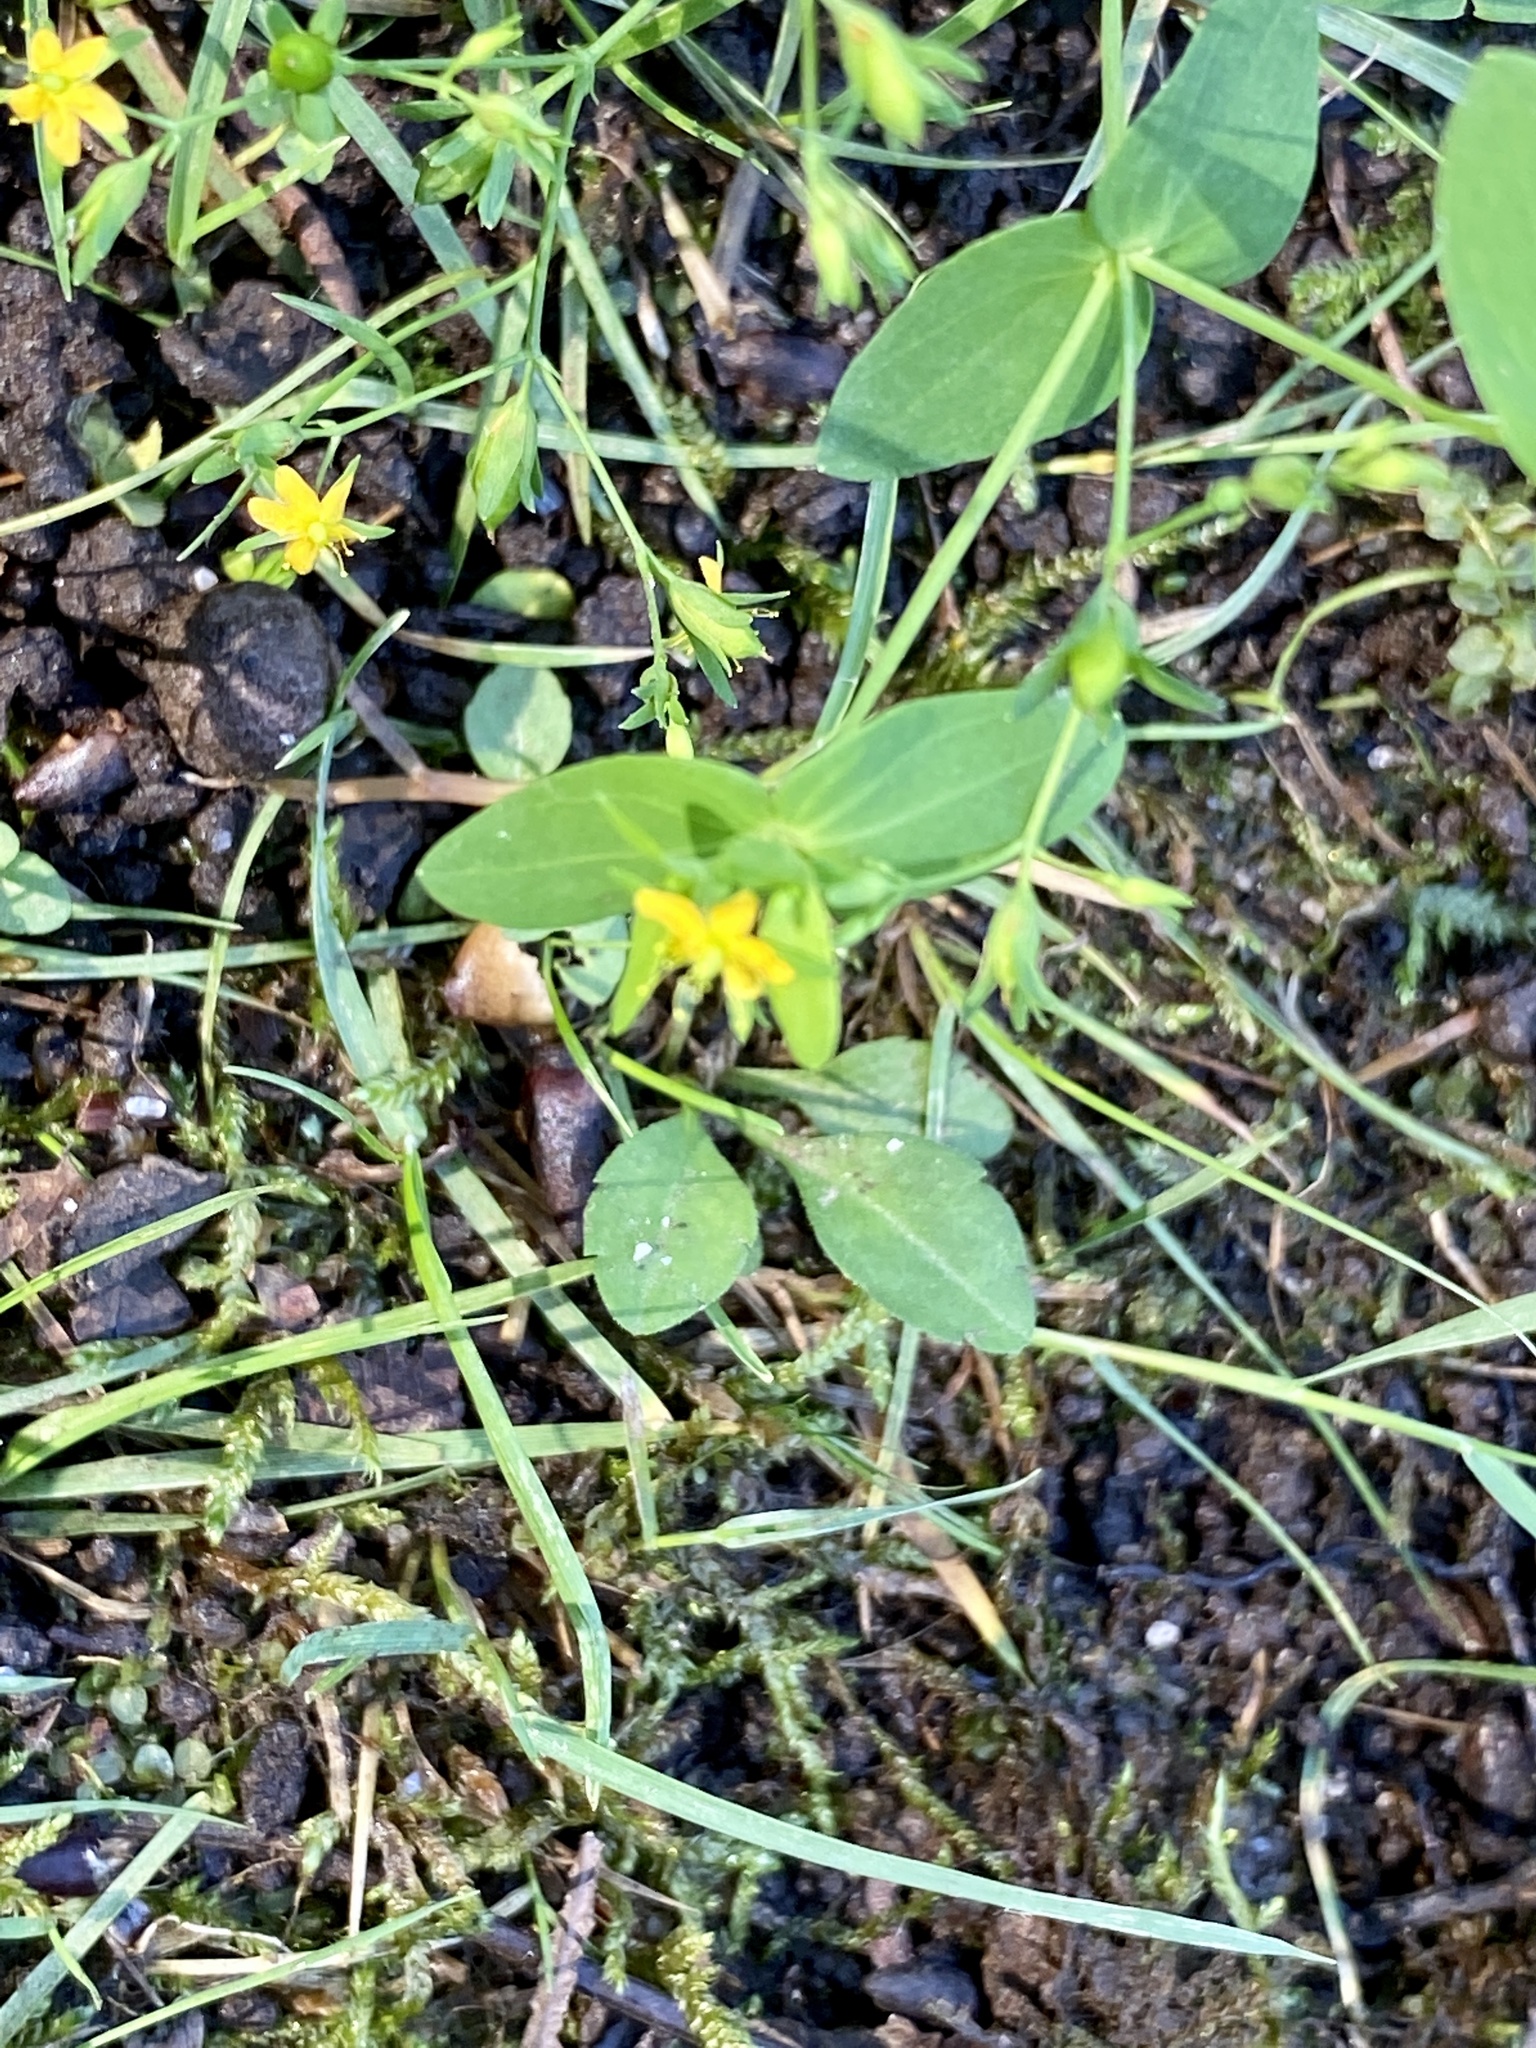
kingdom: Plantae
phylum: Tracheophyta
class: Magnoliopsida
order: Malpighiales
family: Hypericaceae
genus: Hypericum
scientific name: Hypericum mutilum
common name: Dwarf st. john's-wort
